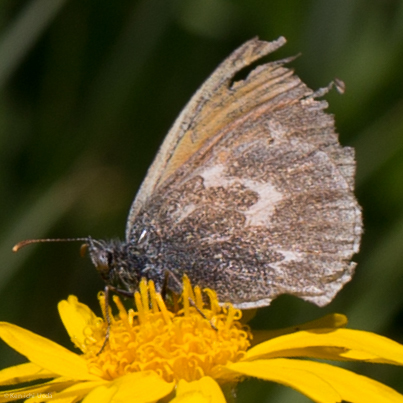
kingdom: Animalia
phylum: Arthropoda
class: Insecta
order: Lepidoptera
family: Nymphalidae
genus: Coenonympha
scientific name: Coenonympha california
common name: Common ringlet
